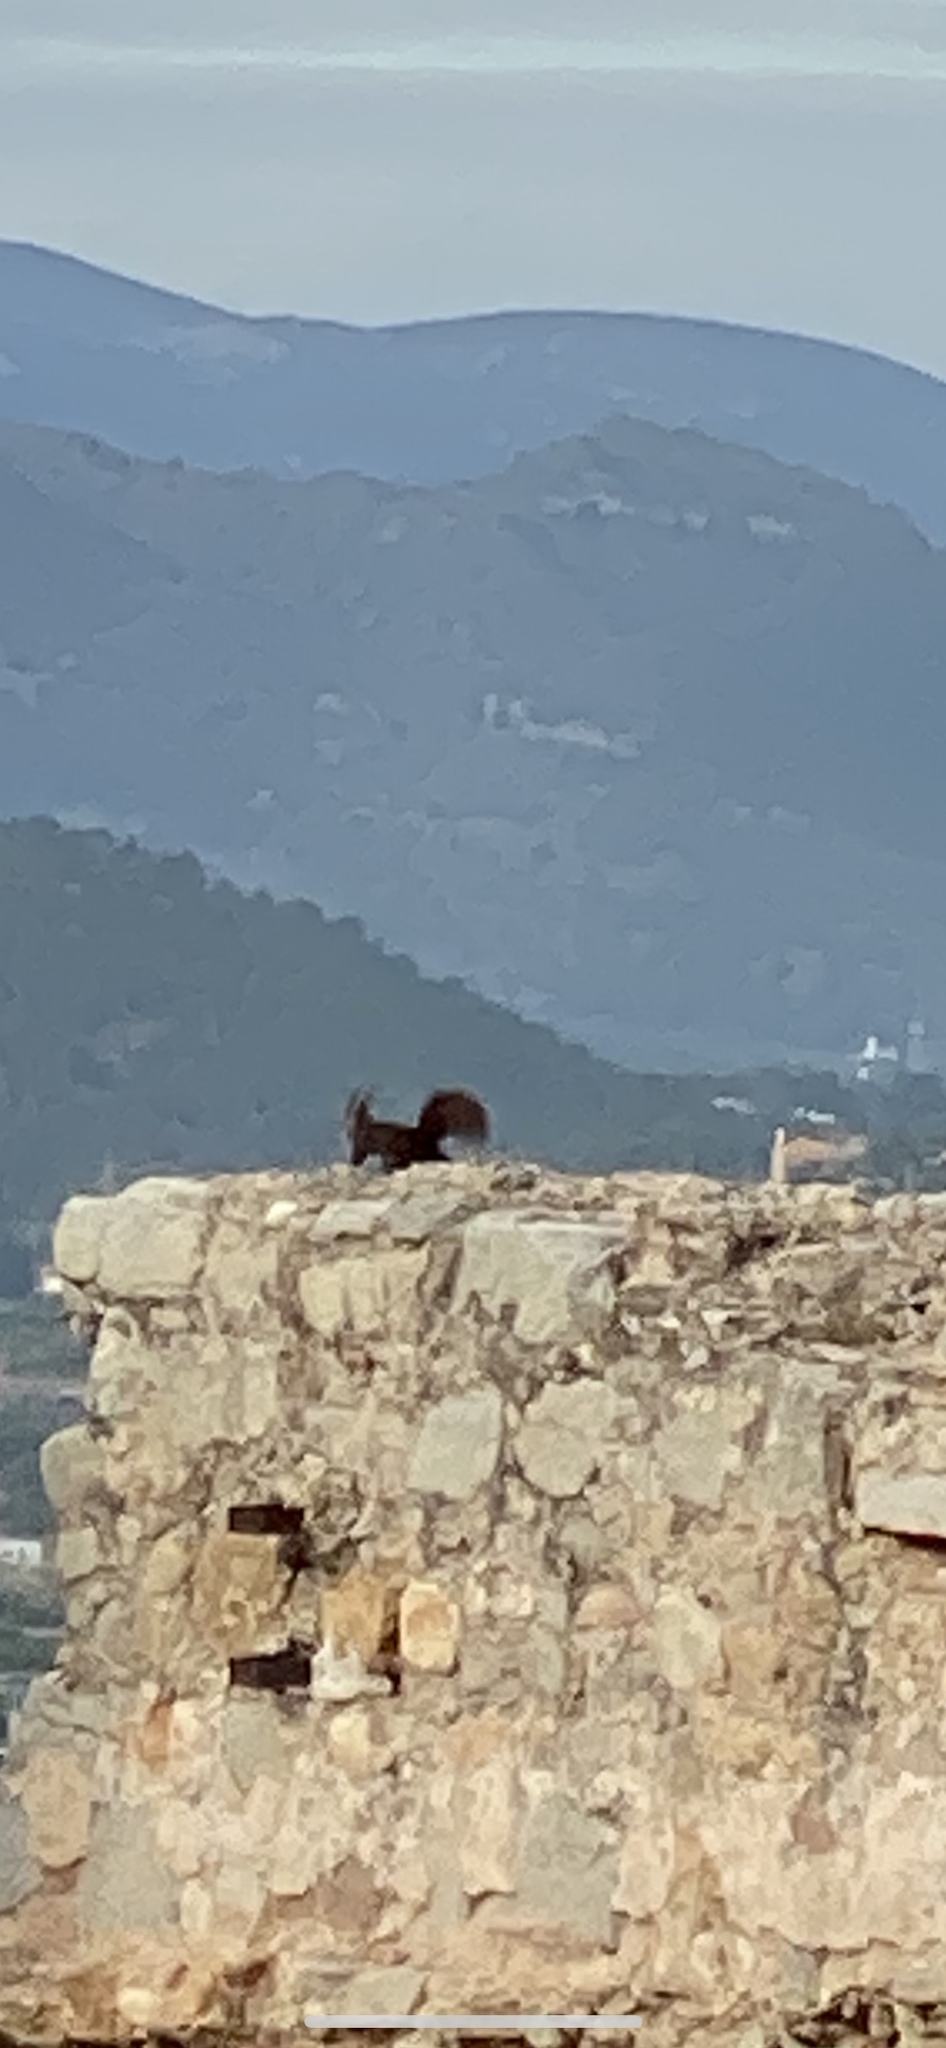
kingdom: Animalia
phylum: Chordata
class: Mammalia
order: Rodentia
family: Sciuridae
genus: Sciurus
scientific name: Sciurus vulgaris
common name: Eurasian red squirrel
